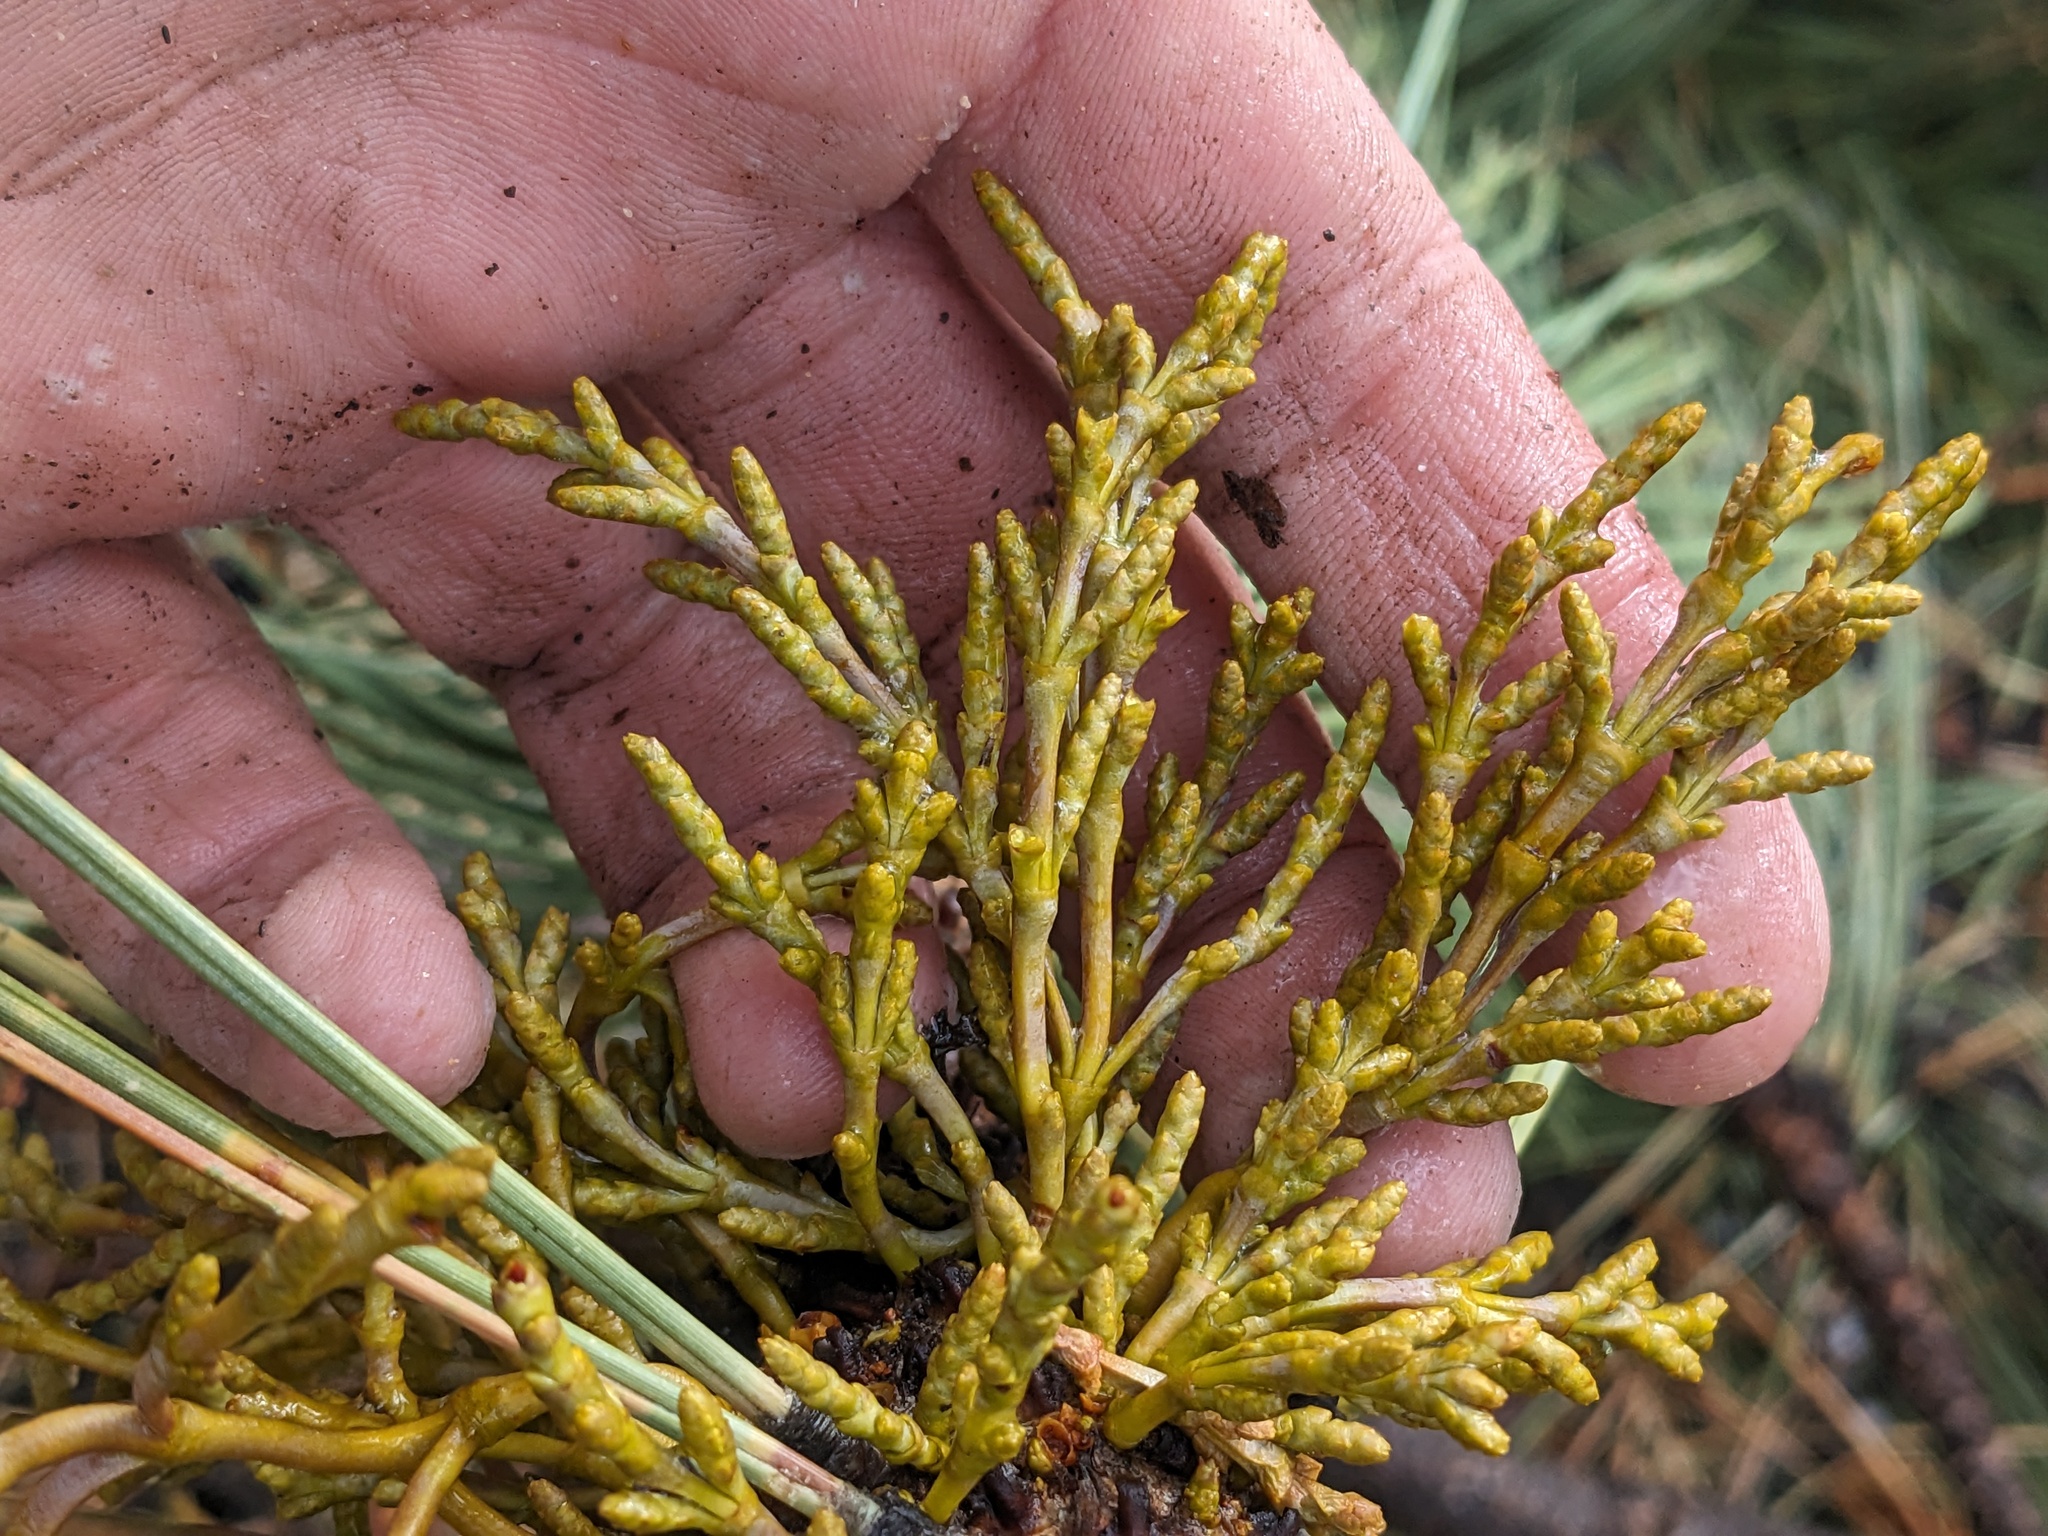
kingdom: Plantae
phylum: Tracheophyta
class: Magnoliopsida
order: Santalales
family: Viscaceae
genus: Arceuthobium
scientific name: Arceuthobium campylopodum
